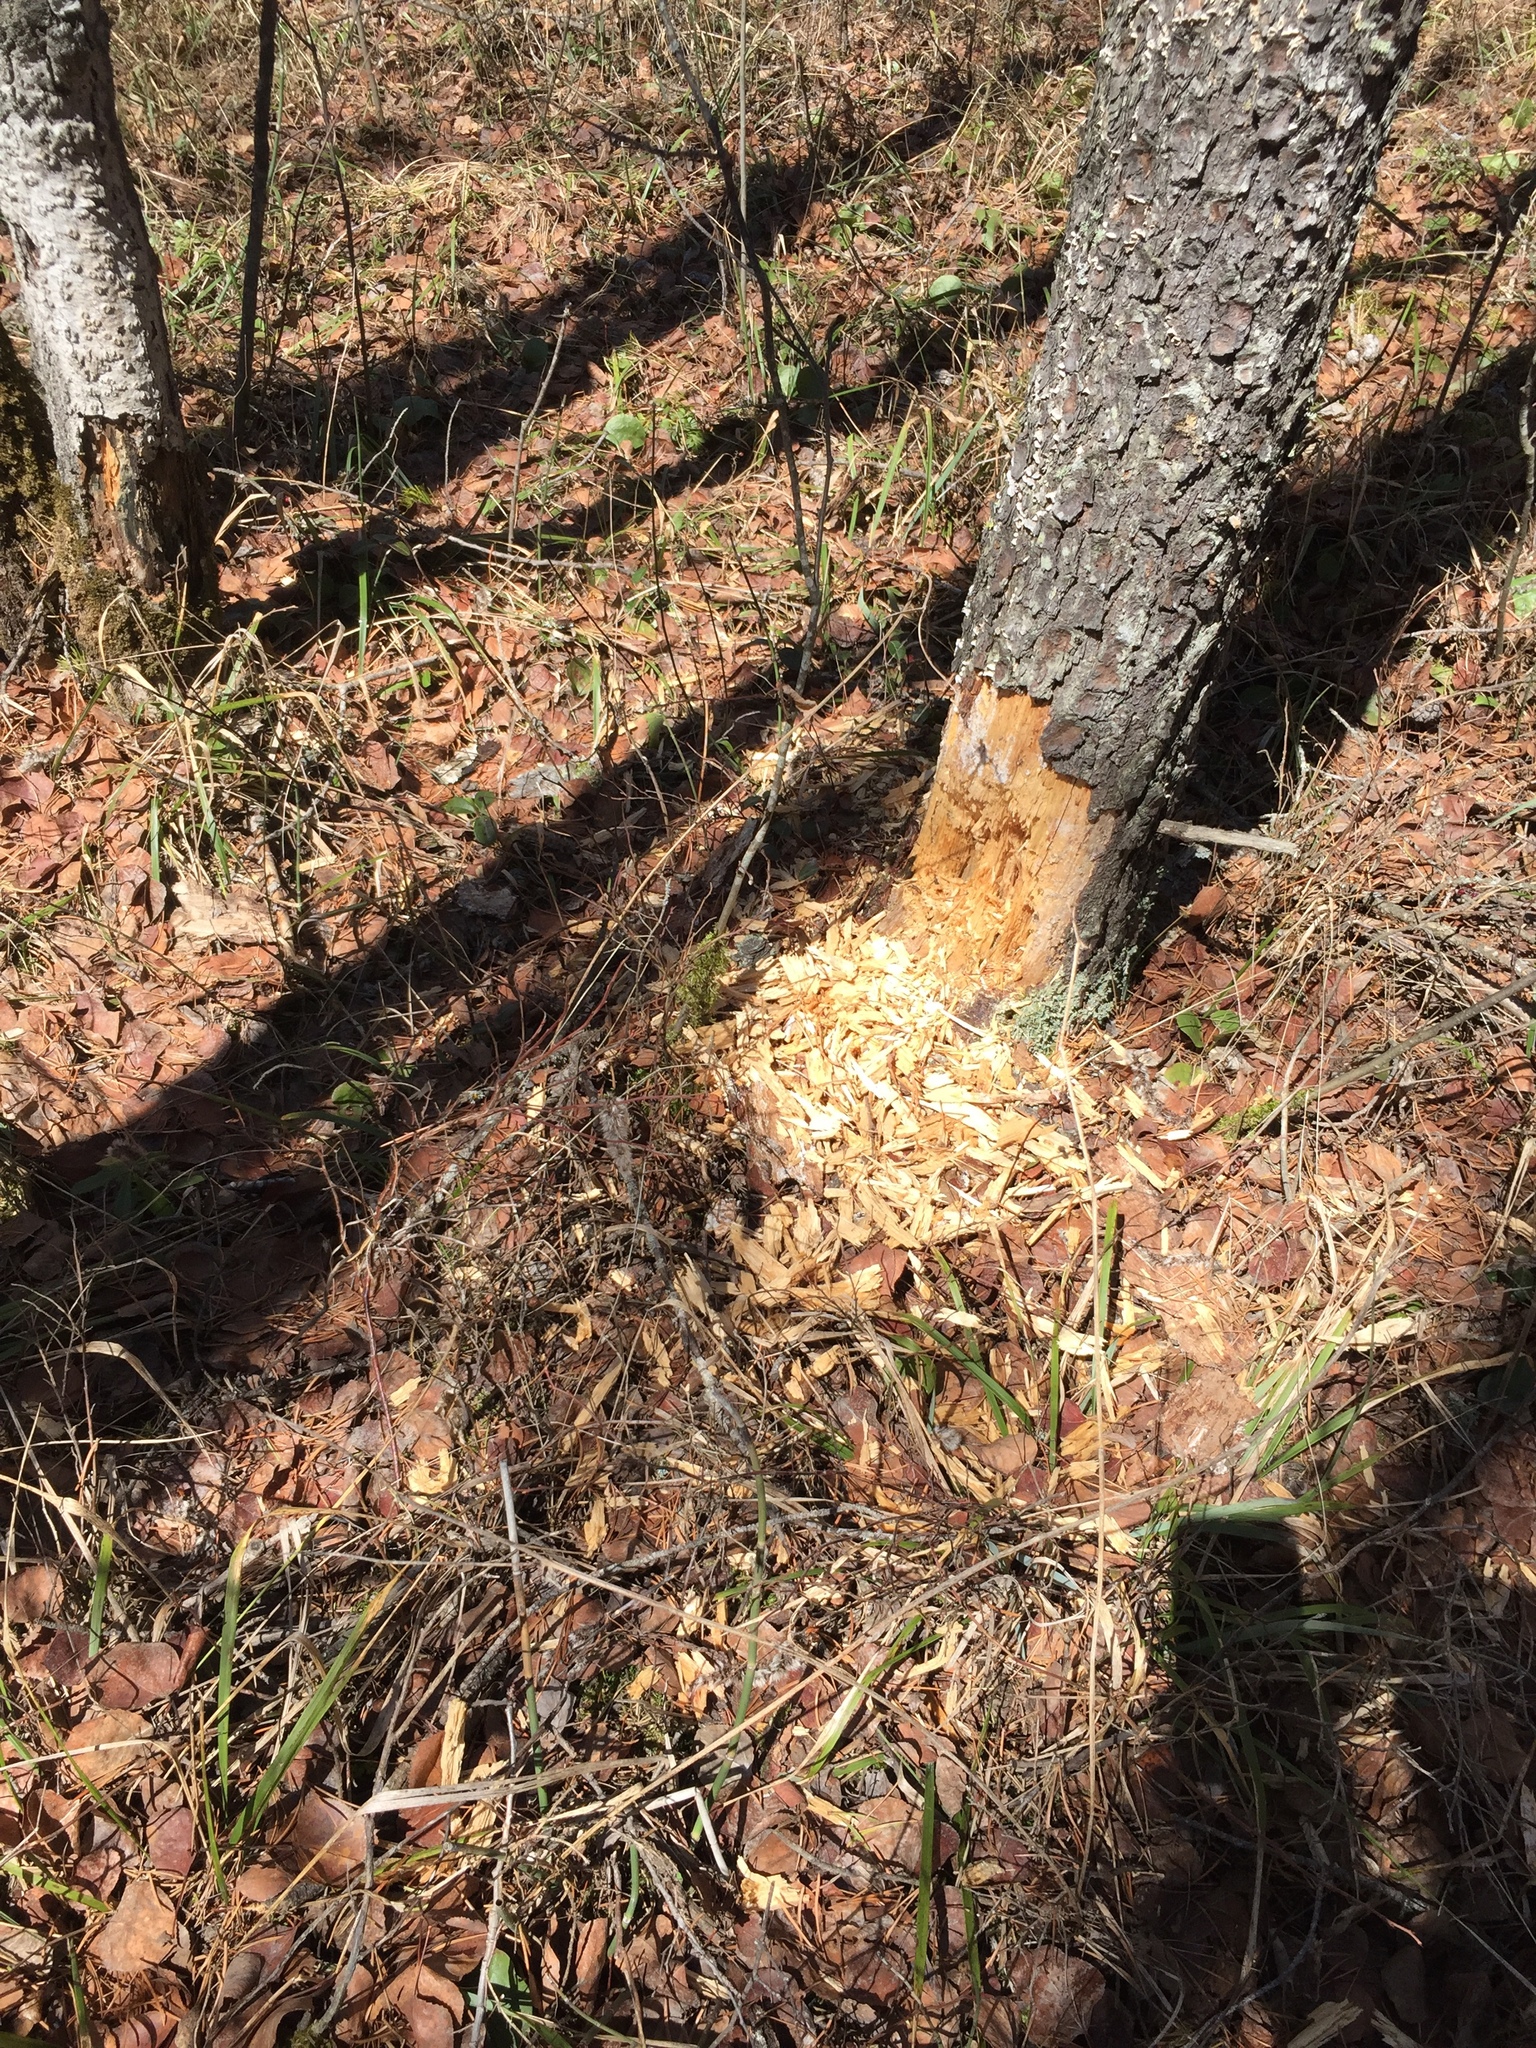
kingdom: Animalia
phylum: Chordata
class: Aves
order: Piciformes
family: Picidae
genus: Dryocopus
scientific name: Dryocopus pileatus
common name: Pileated woodpecker
